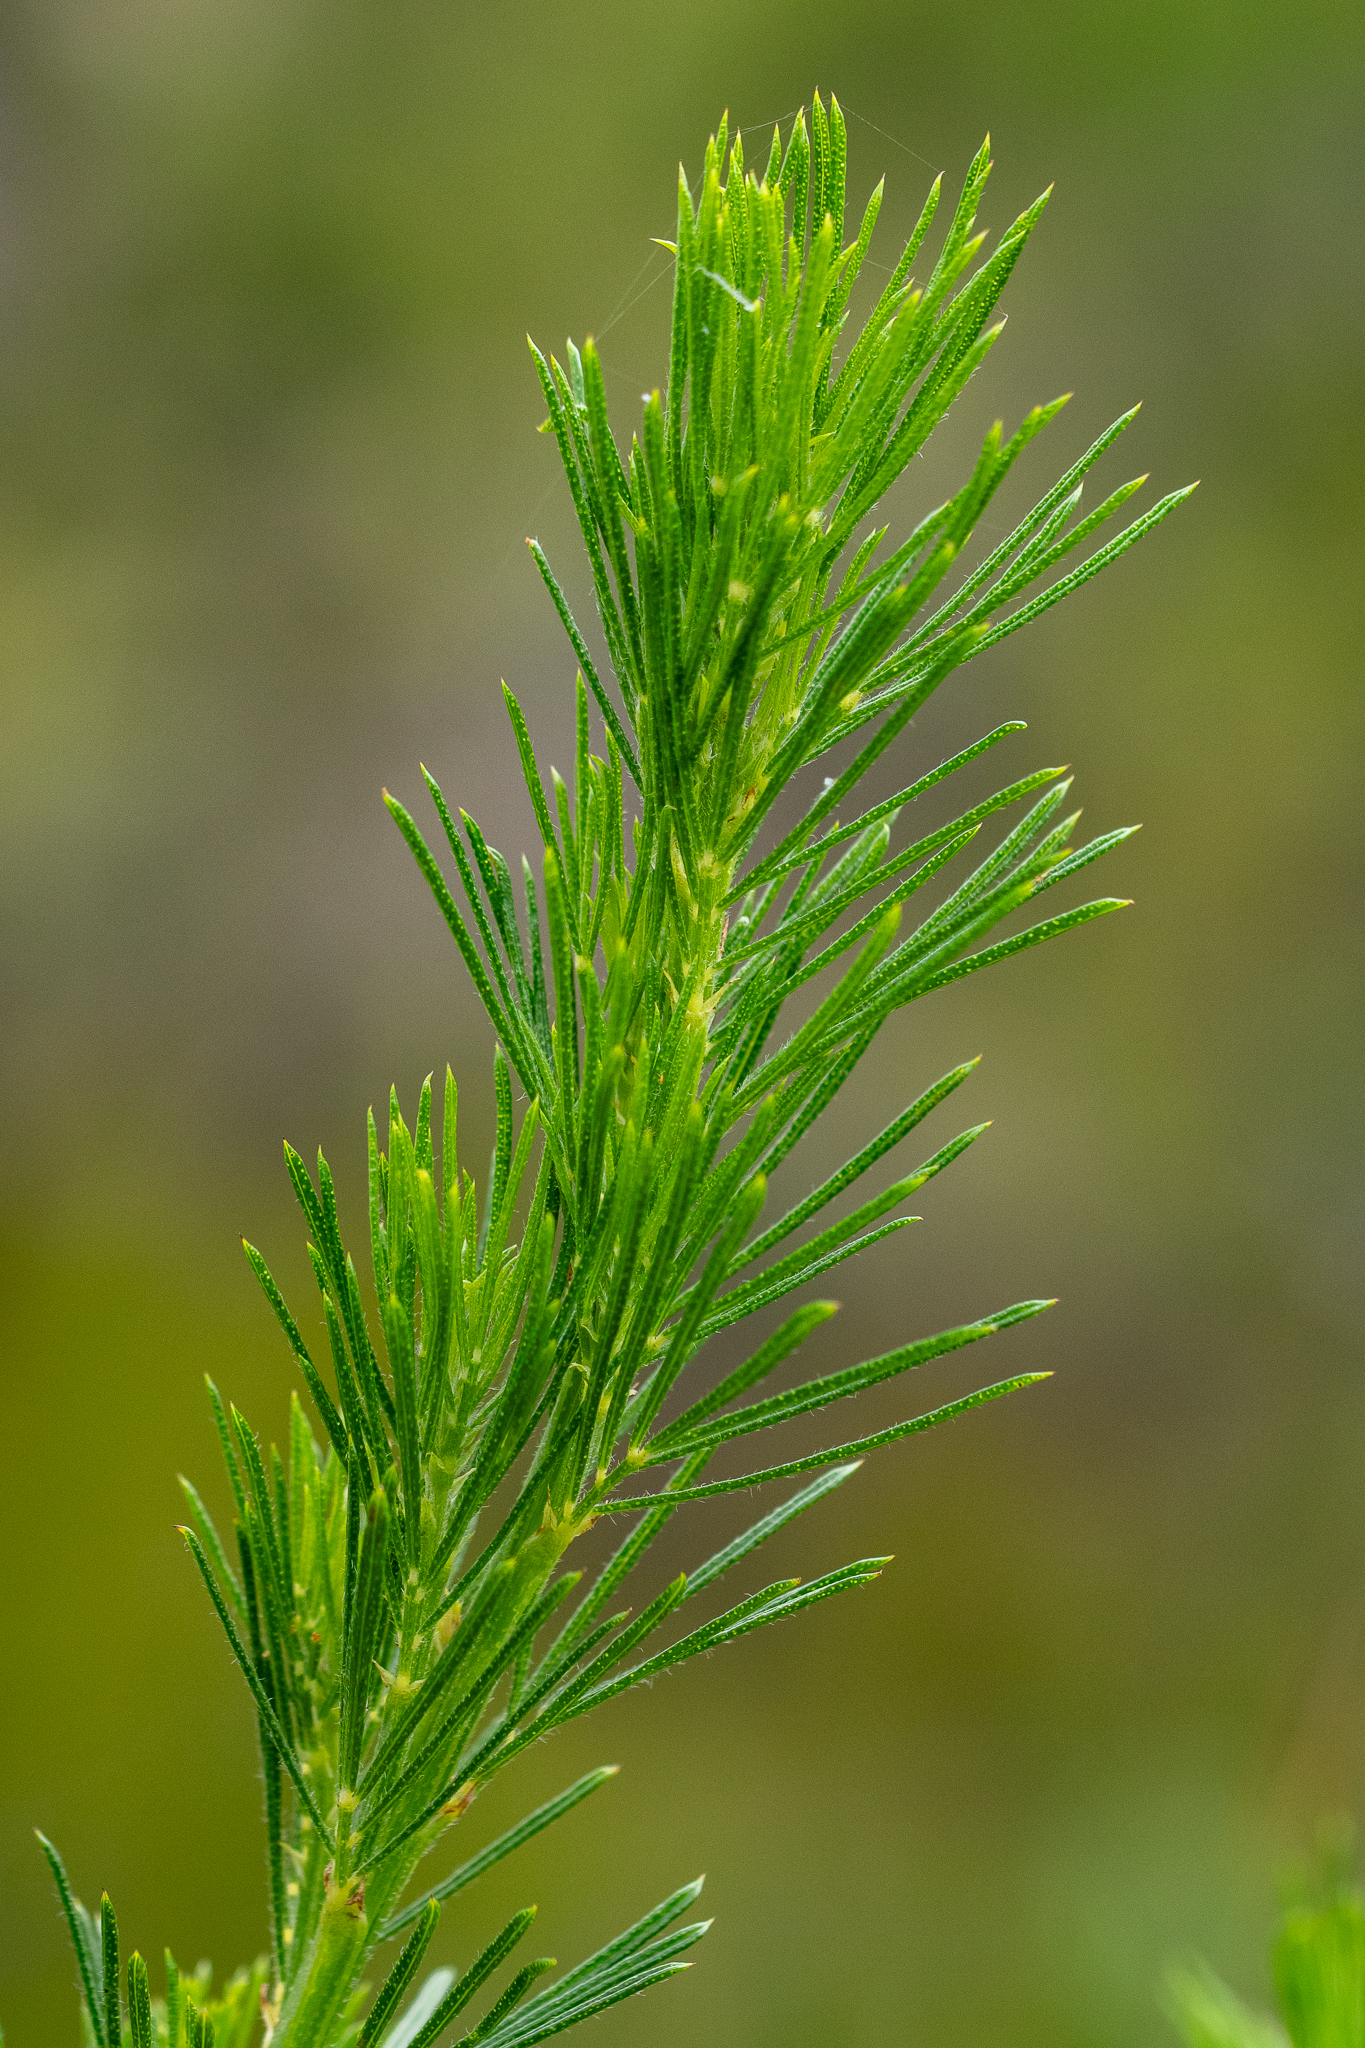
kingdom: Plantae
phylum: Tracheophyta
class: Magnoliopsida
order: Fabales
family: Fabaceae
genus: Psoralea
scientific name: Psoralea pinnata
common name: African scurfpea
